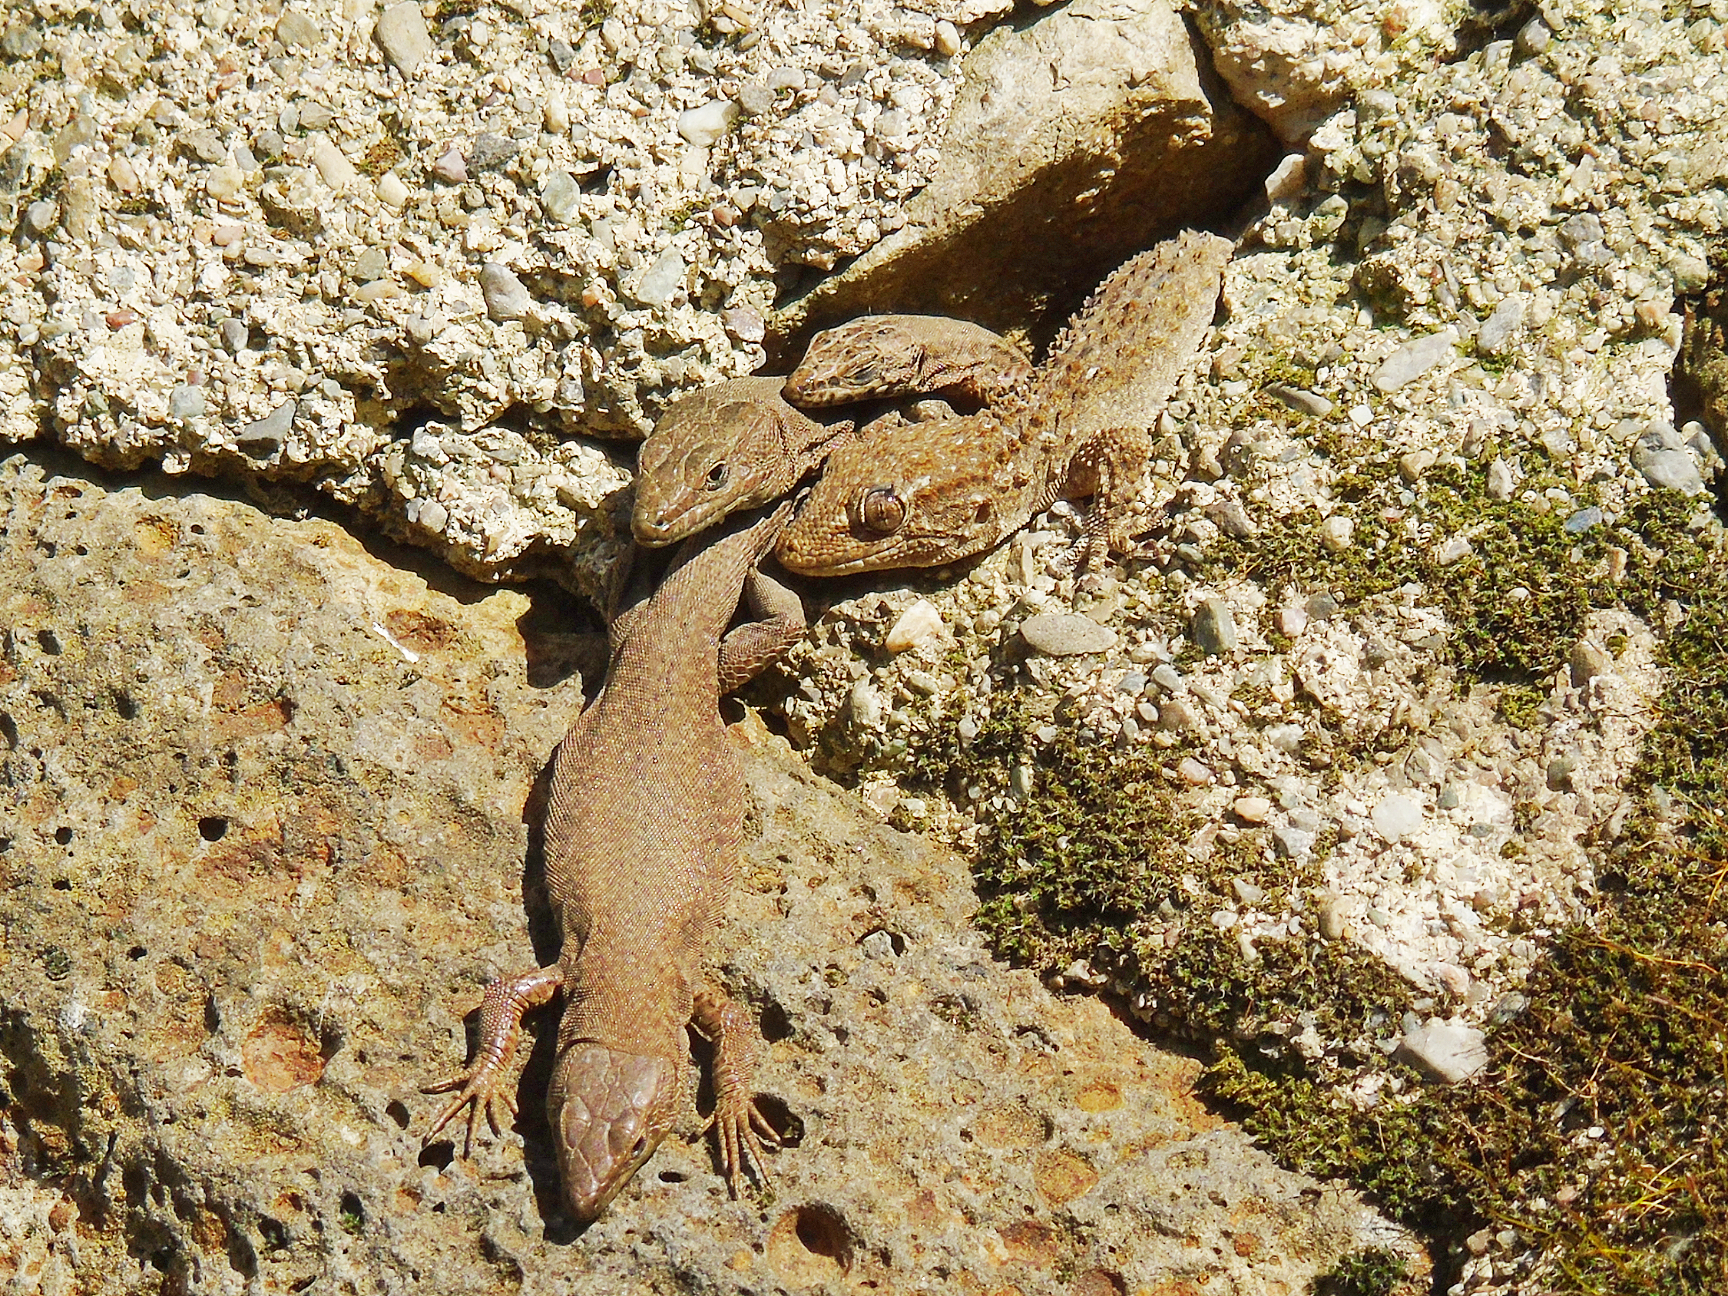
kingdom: Animalia
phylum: Chordata
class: Squamata
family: Lacertidae
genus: Podarcis
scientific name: Podarcis liolepis
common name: Catalonian wall lizard
